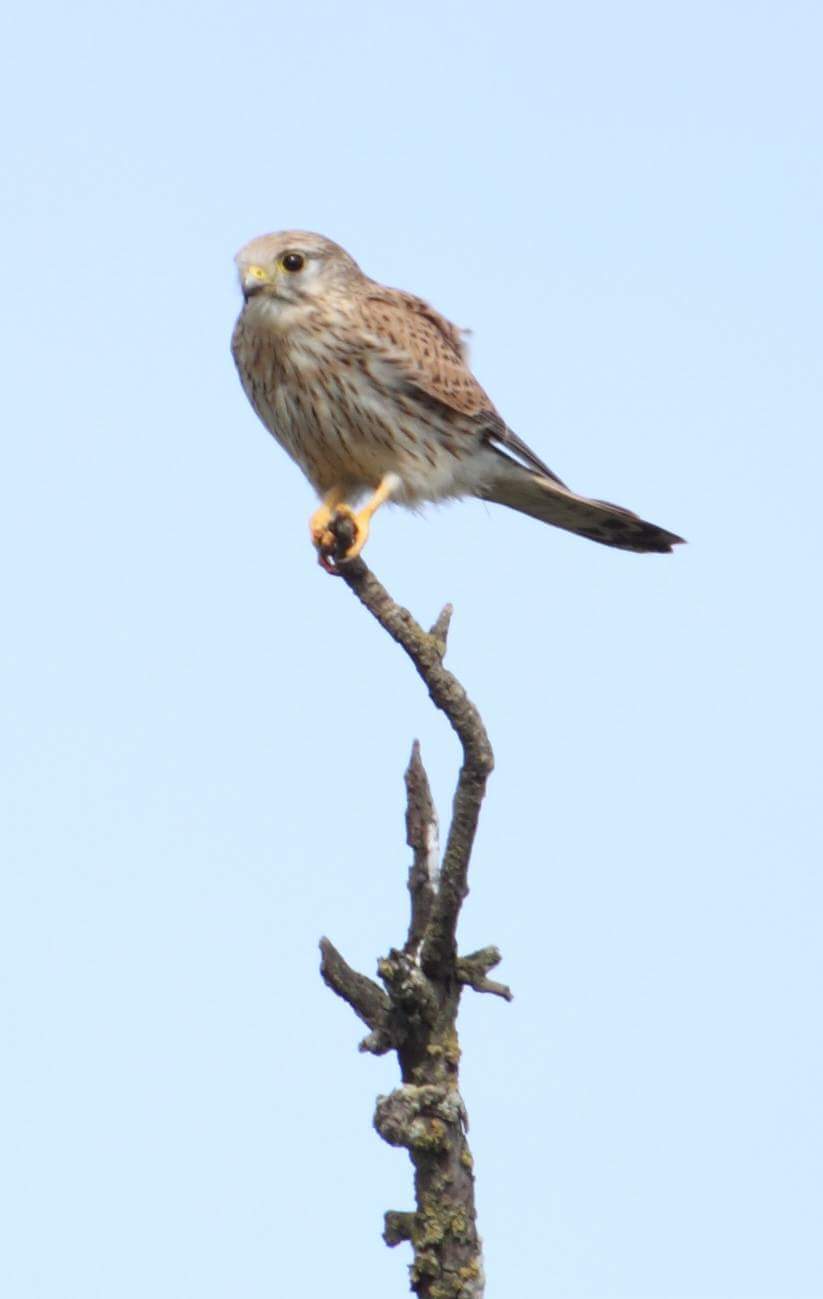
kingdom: Animalia
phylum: Chordata
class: Aves
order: Falconiformes
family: Falconidae
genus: Falco
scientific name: Falco tinnunculus
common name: Common kestrel
